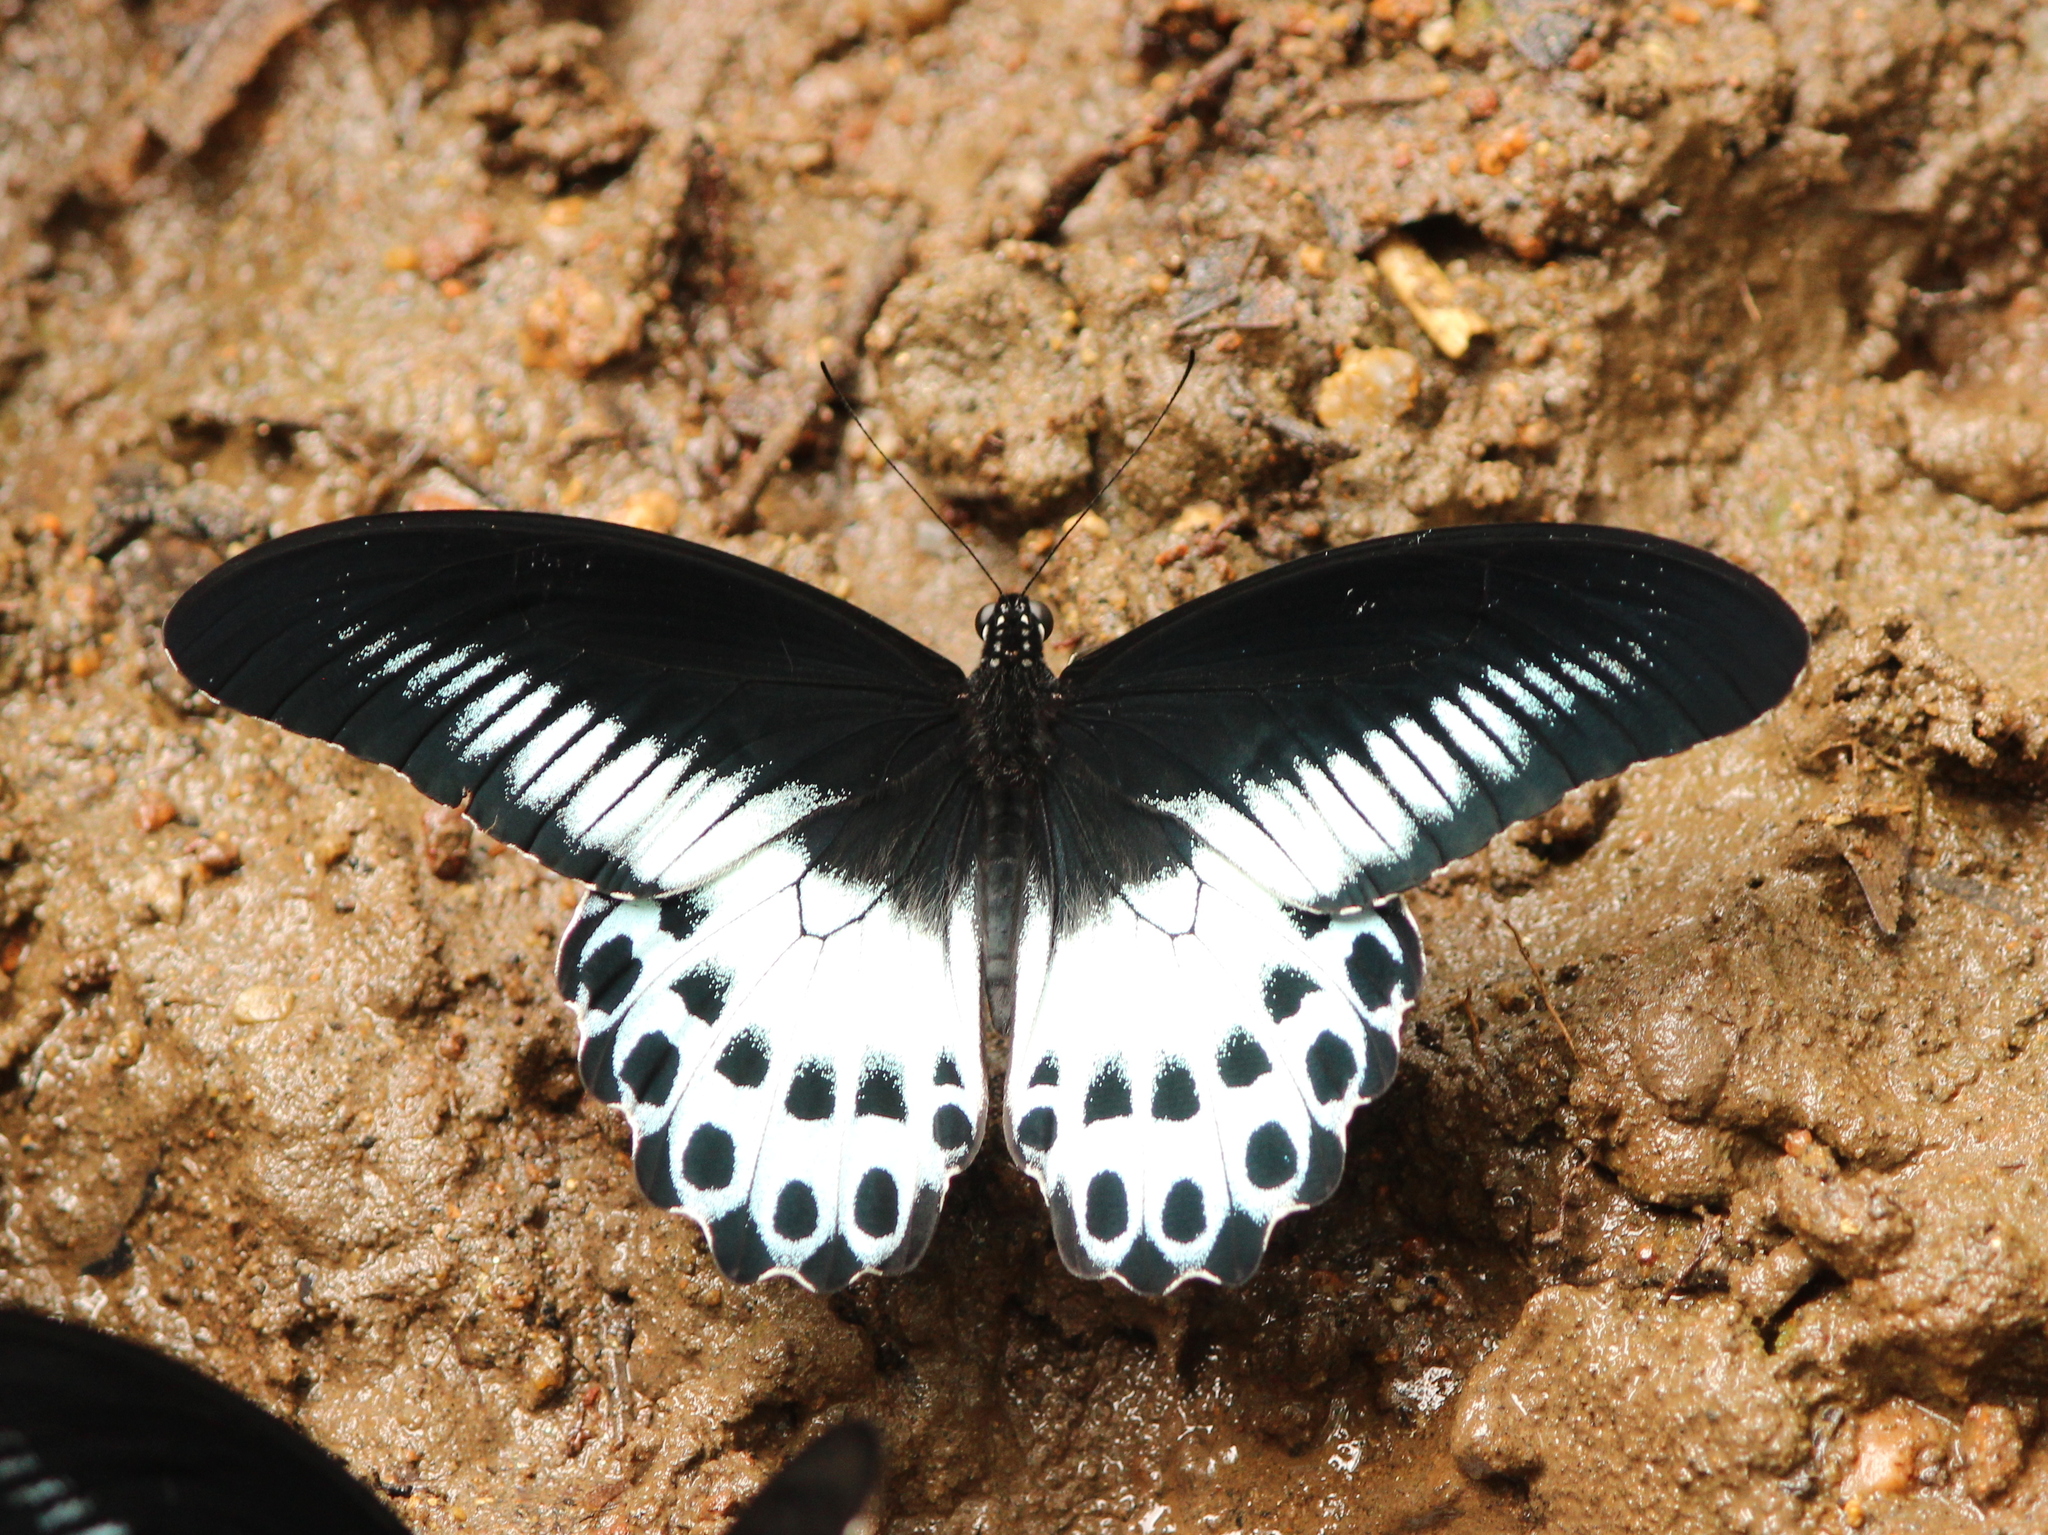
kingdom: Animalia
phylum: Arthropoda
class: Insecta
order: Lepidoptera
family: Papilionidae
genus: Papilio
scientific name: Papilio memnon
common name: Great mormon
